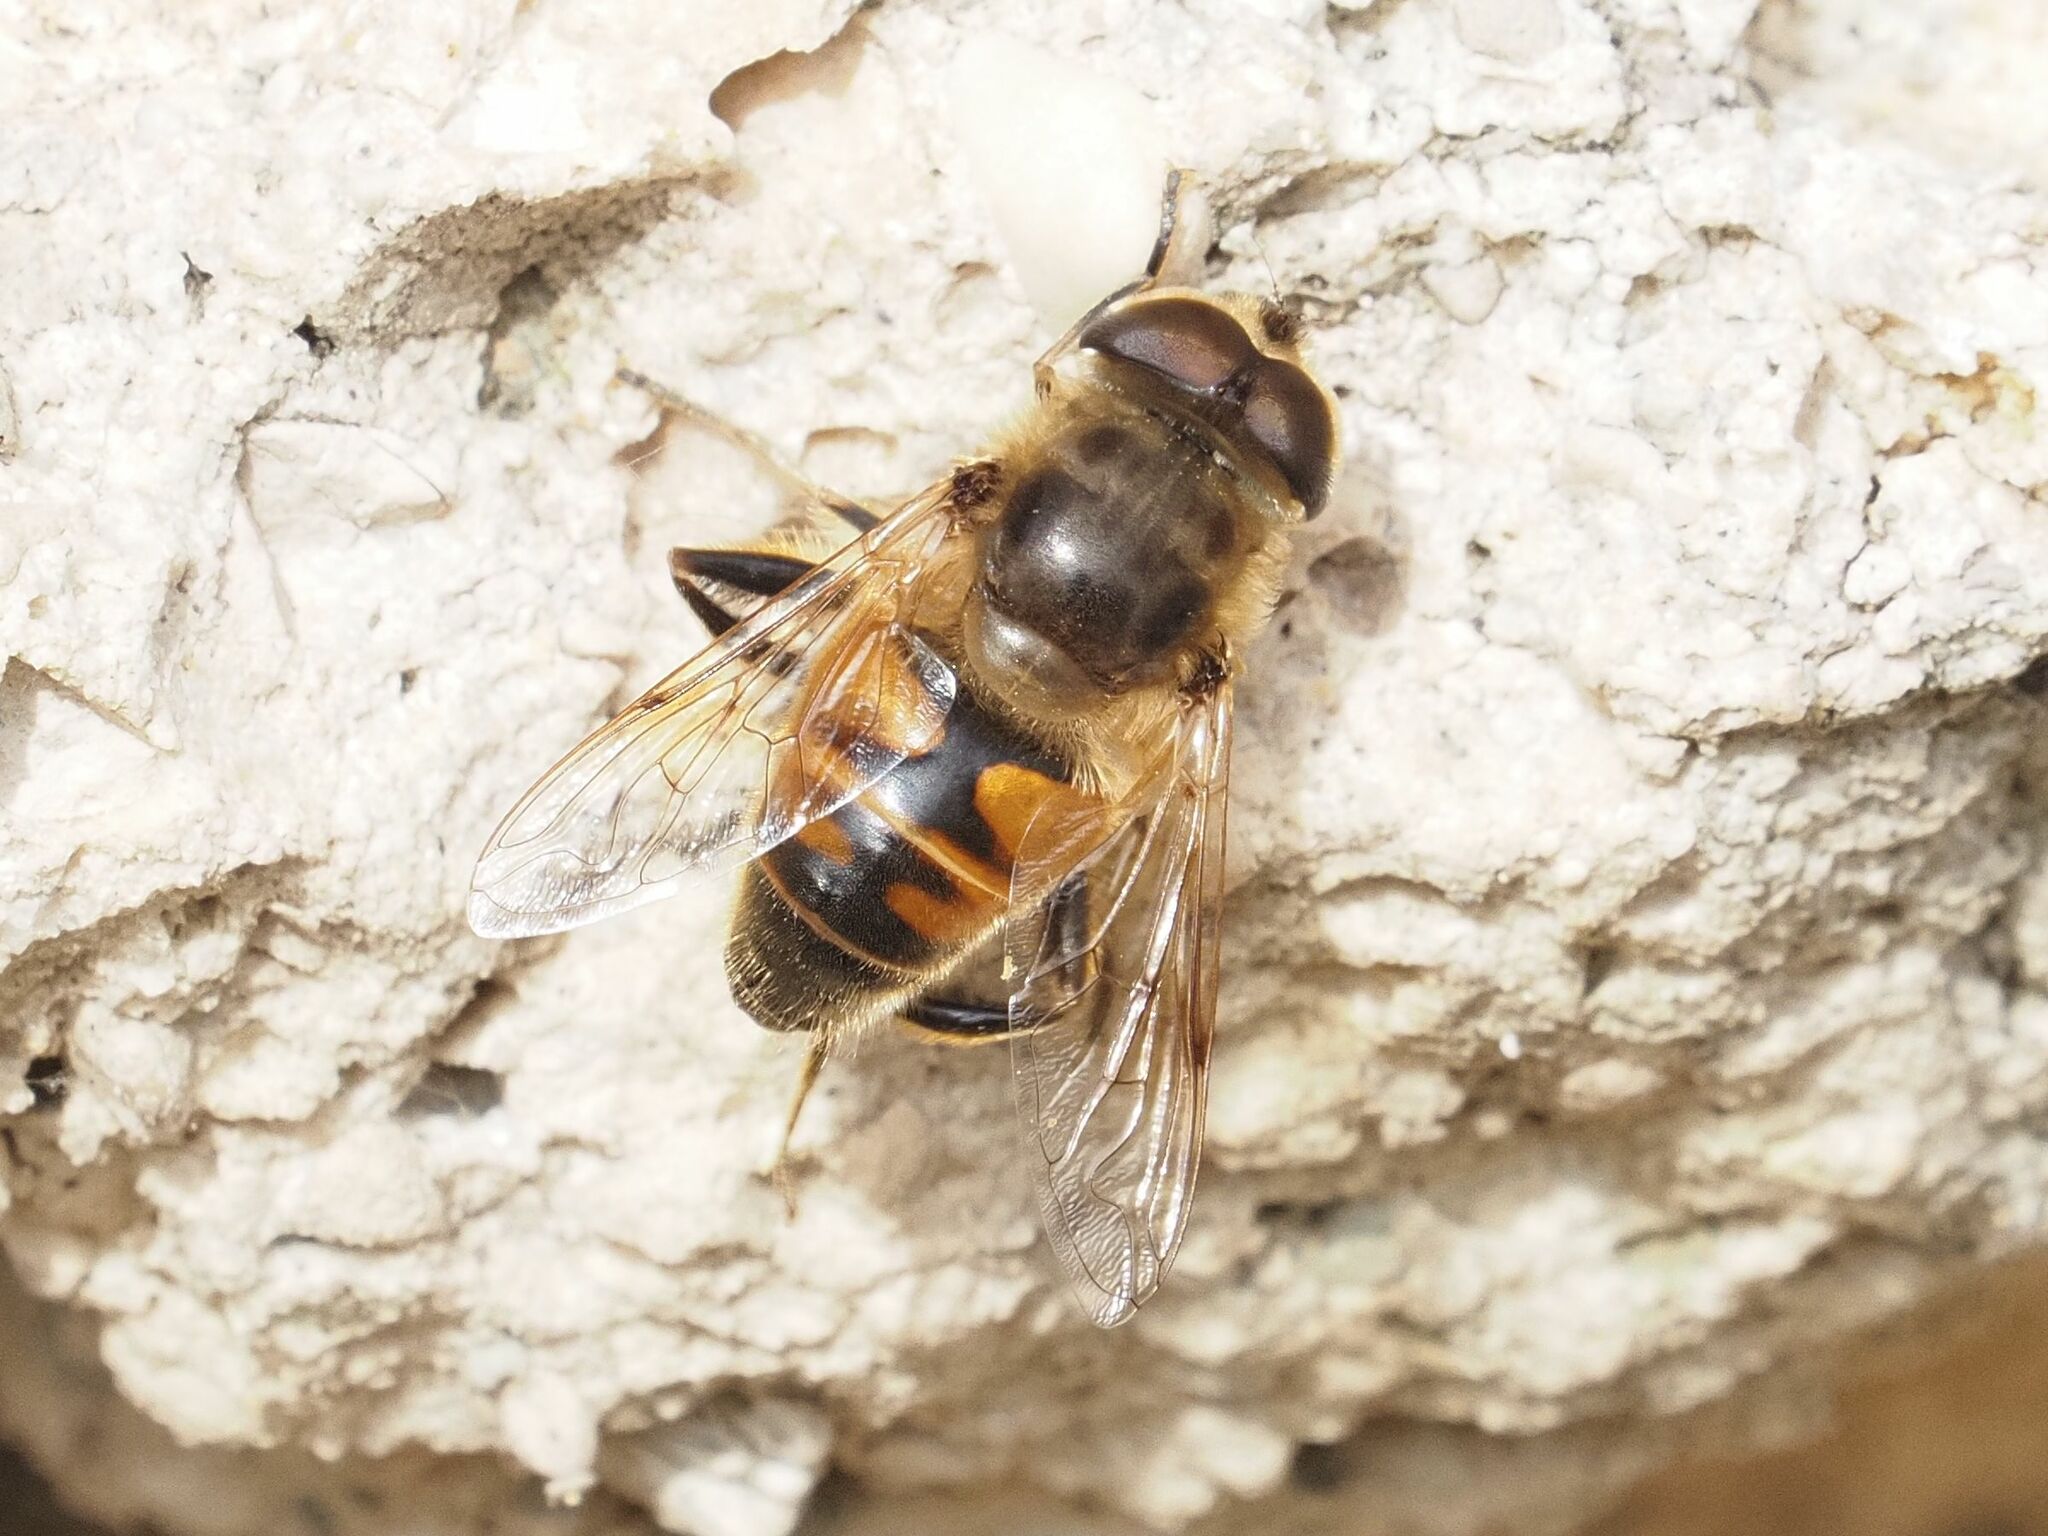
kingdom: Animalia
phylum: Arthropoda
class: Insecta
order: Diptera
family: Syrphidae
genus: Eristalis
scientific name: Eristalis tenax
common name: Drone fly
